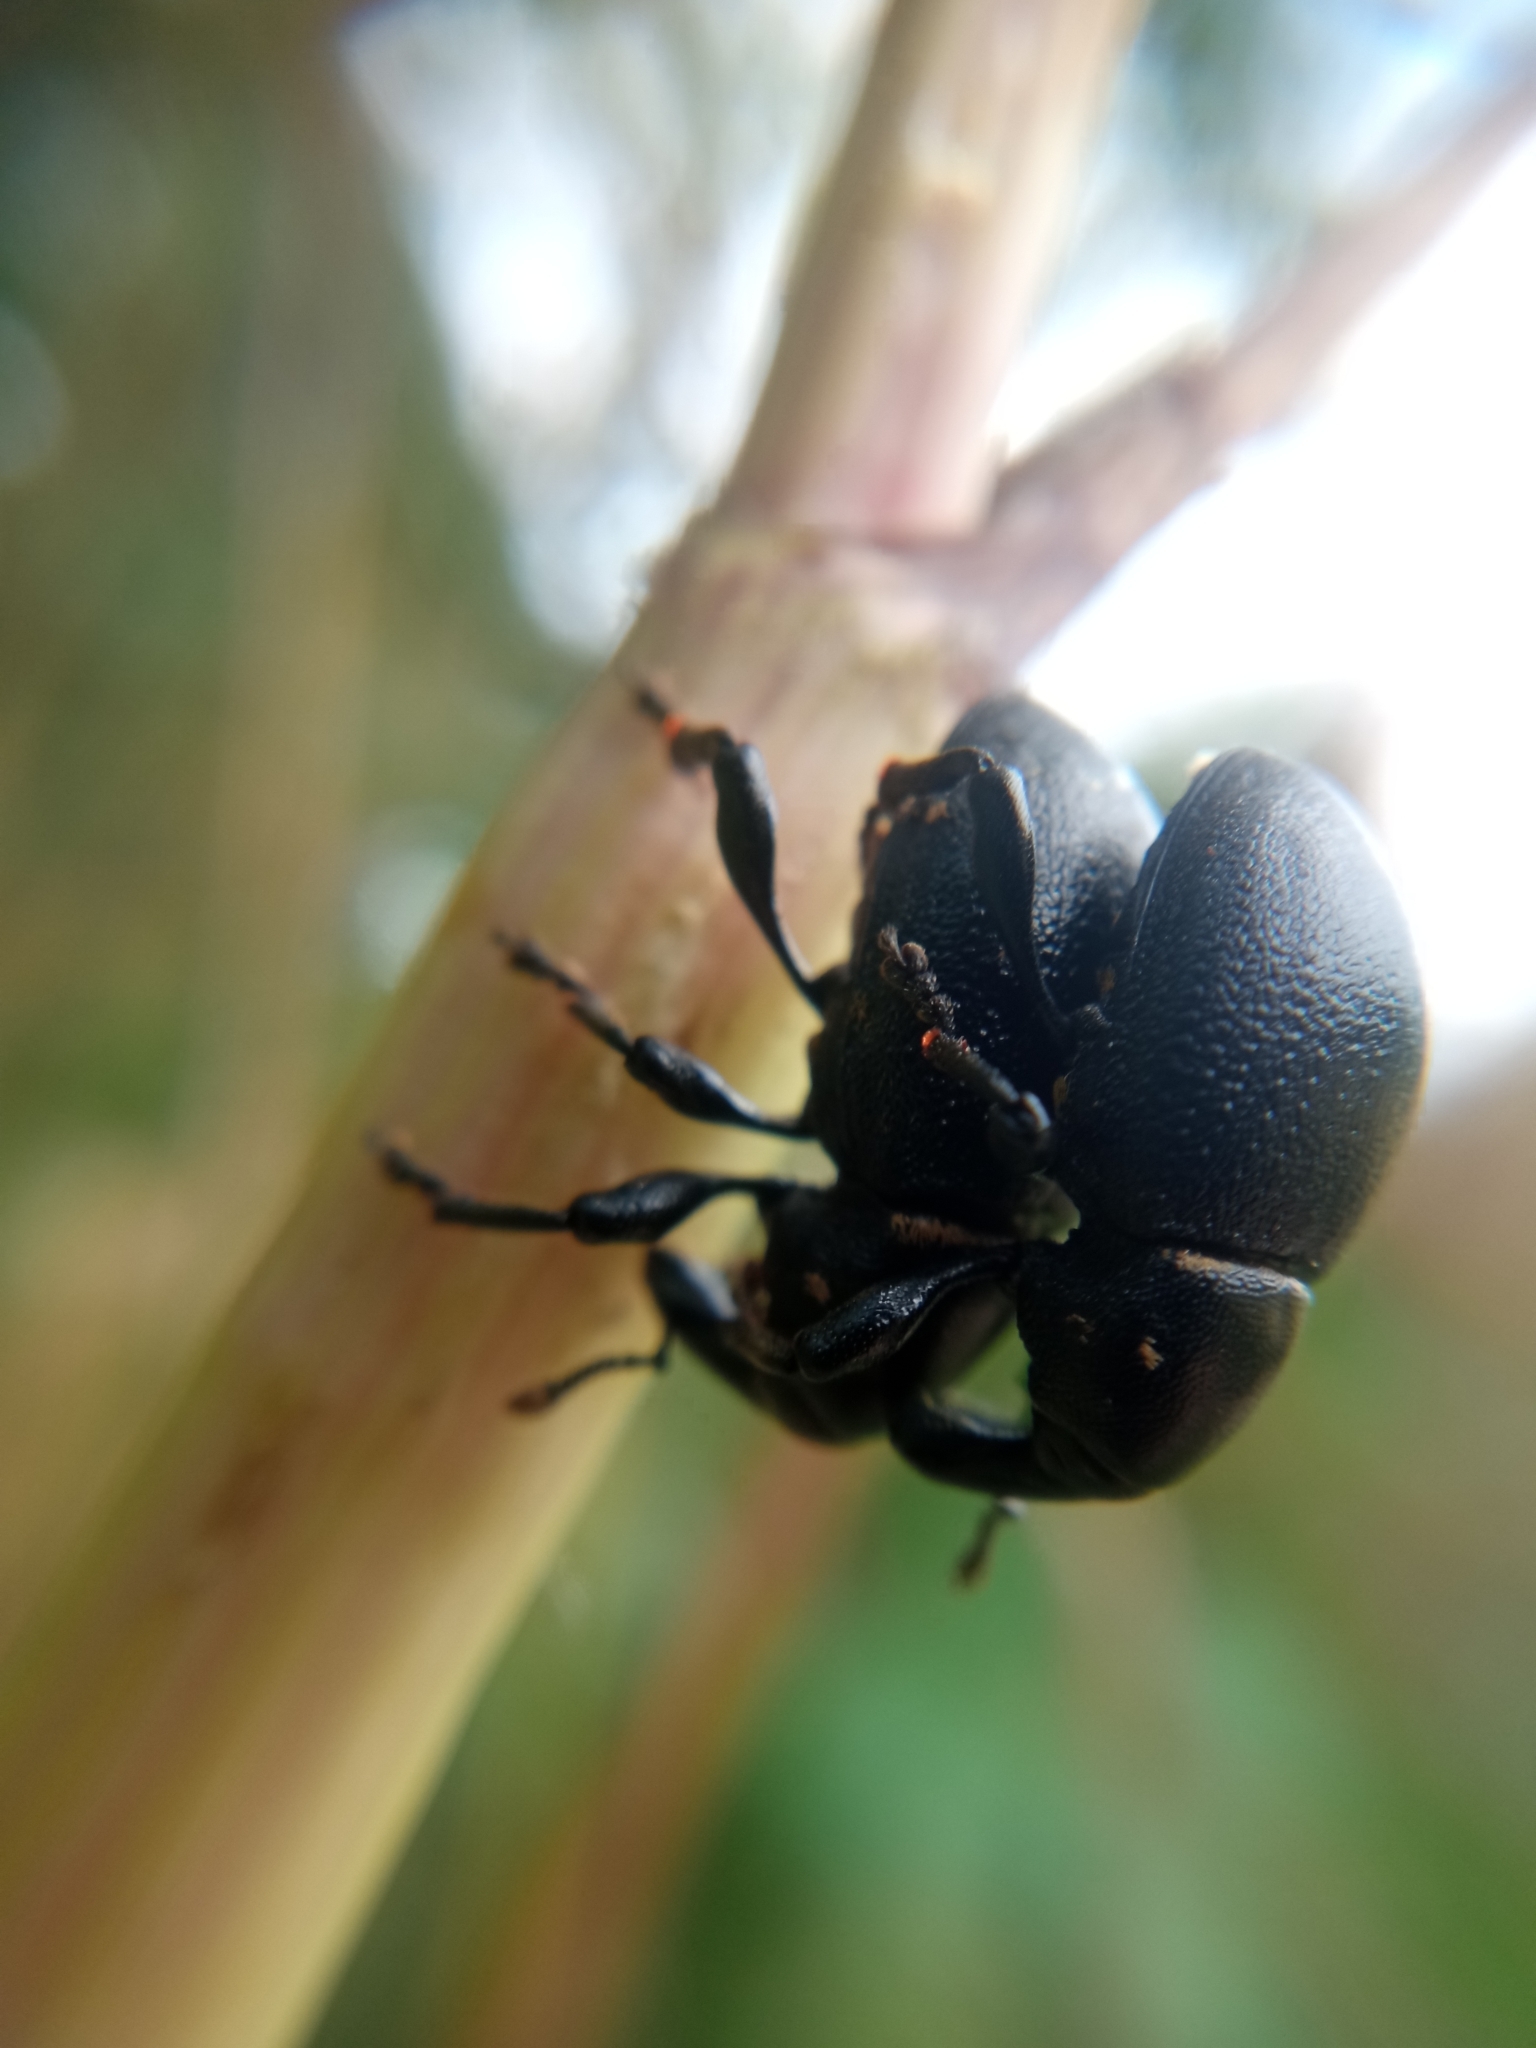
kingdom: Animalia
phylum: Arthropoda
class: Insecta
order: Coleoptera
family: Curculionidae
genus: Liparus
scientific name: Liparus coronatus
